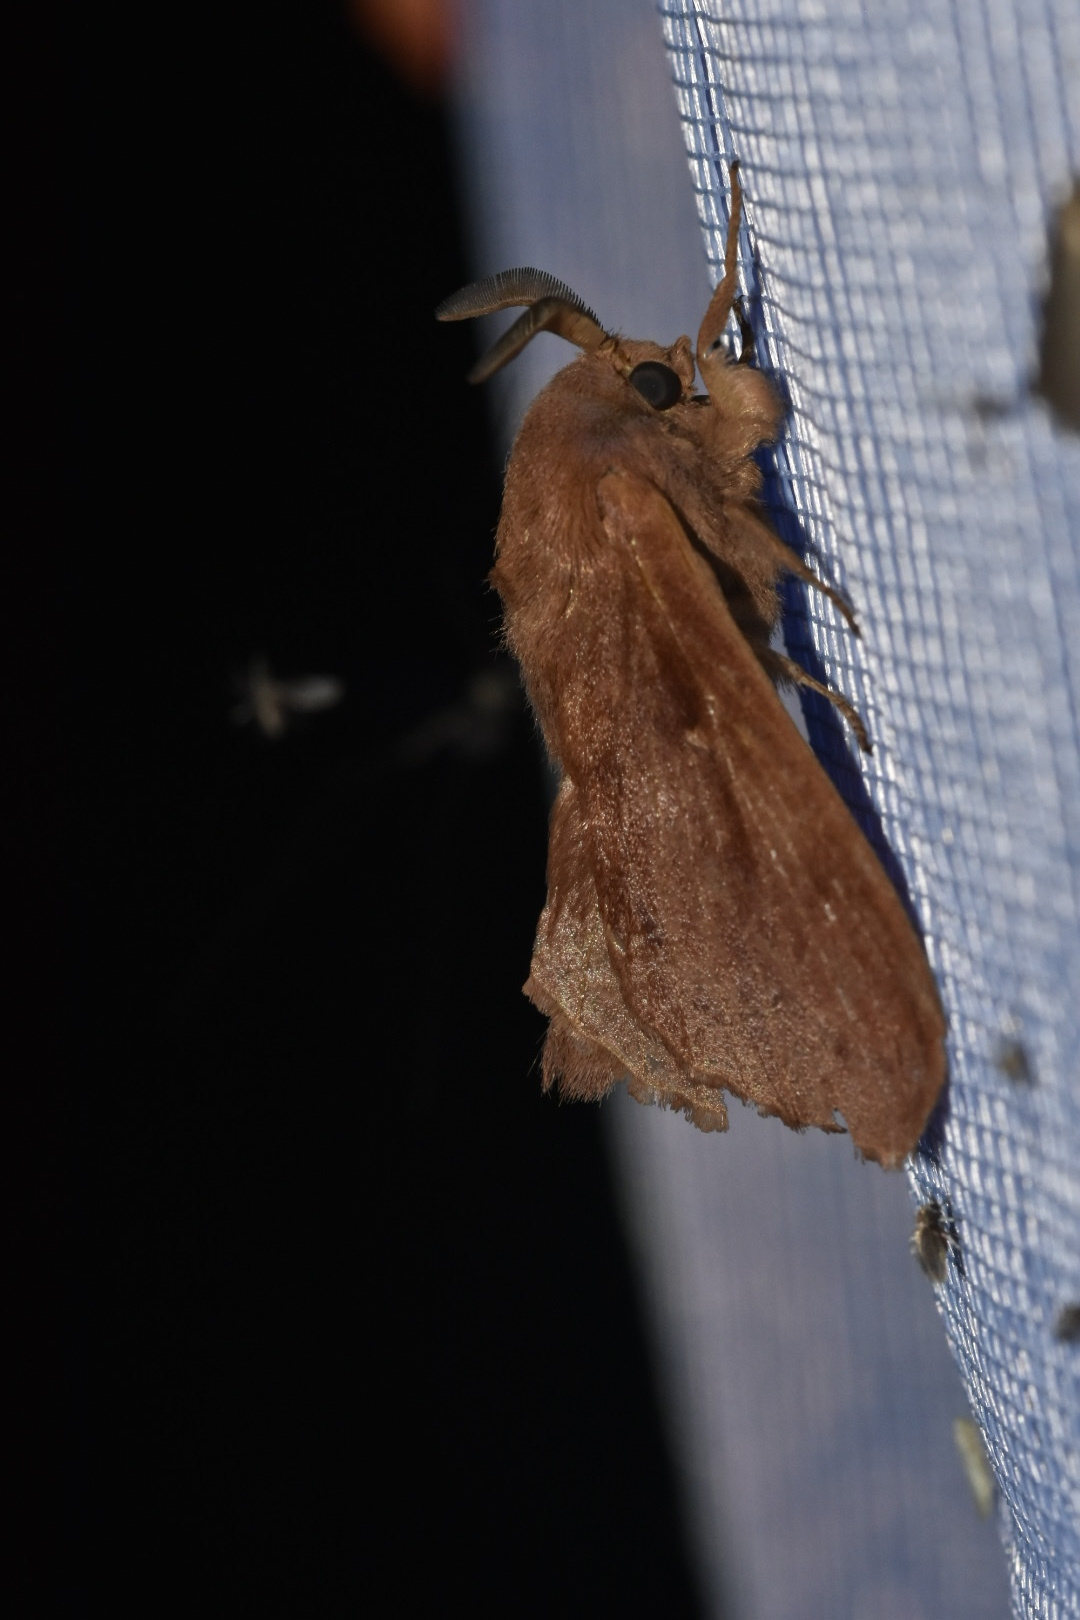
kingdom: Animalia
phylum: Arthropoda
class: Insecta
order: Lepidoptera
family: Lasiocampidae
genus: Dendrolimus
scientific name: Dendrolimus pini
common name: Pine-tree lappet
